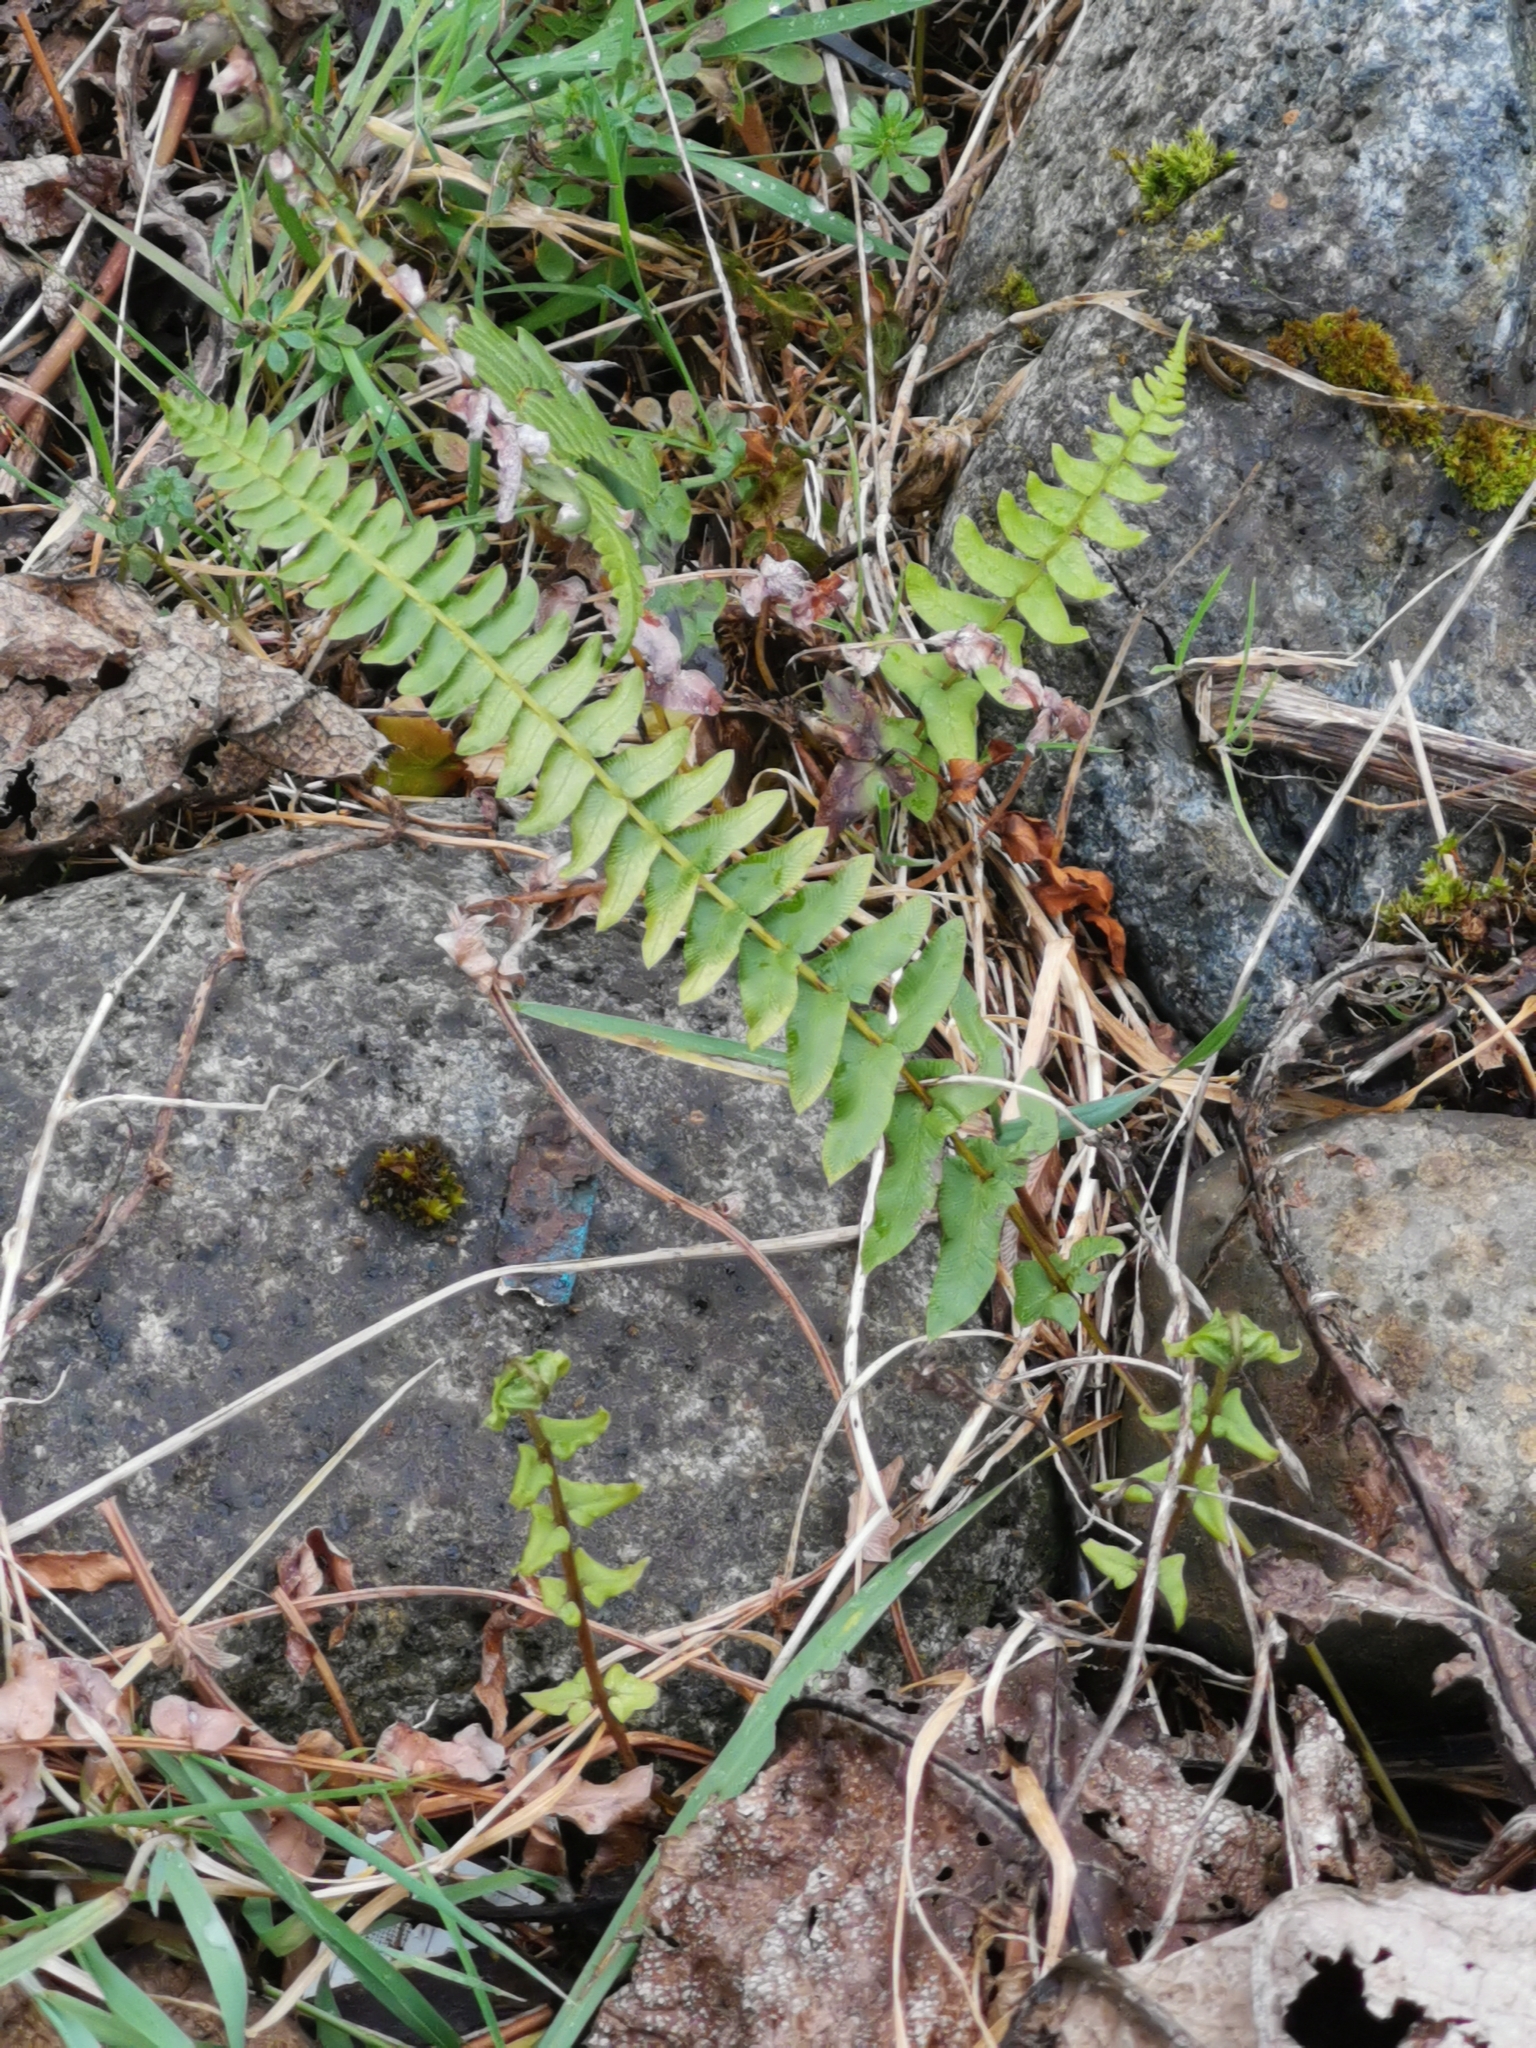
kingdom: Plantae
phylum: Tracheophyta
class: Polypodiopsida
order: Polypodiales
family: Blechnaceae
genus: Blechnum
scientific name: Blechnum hastatum
